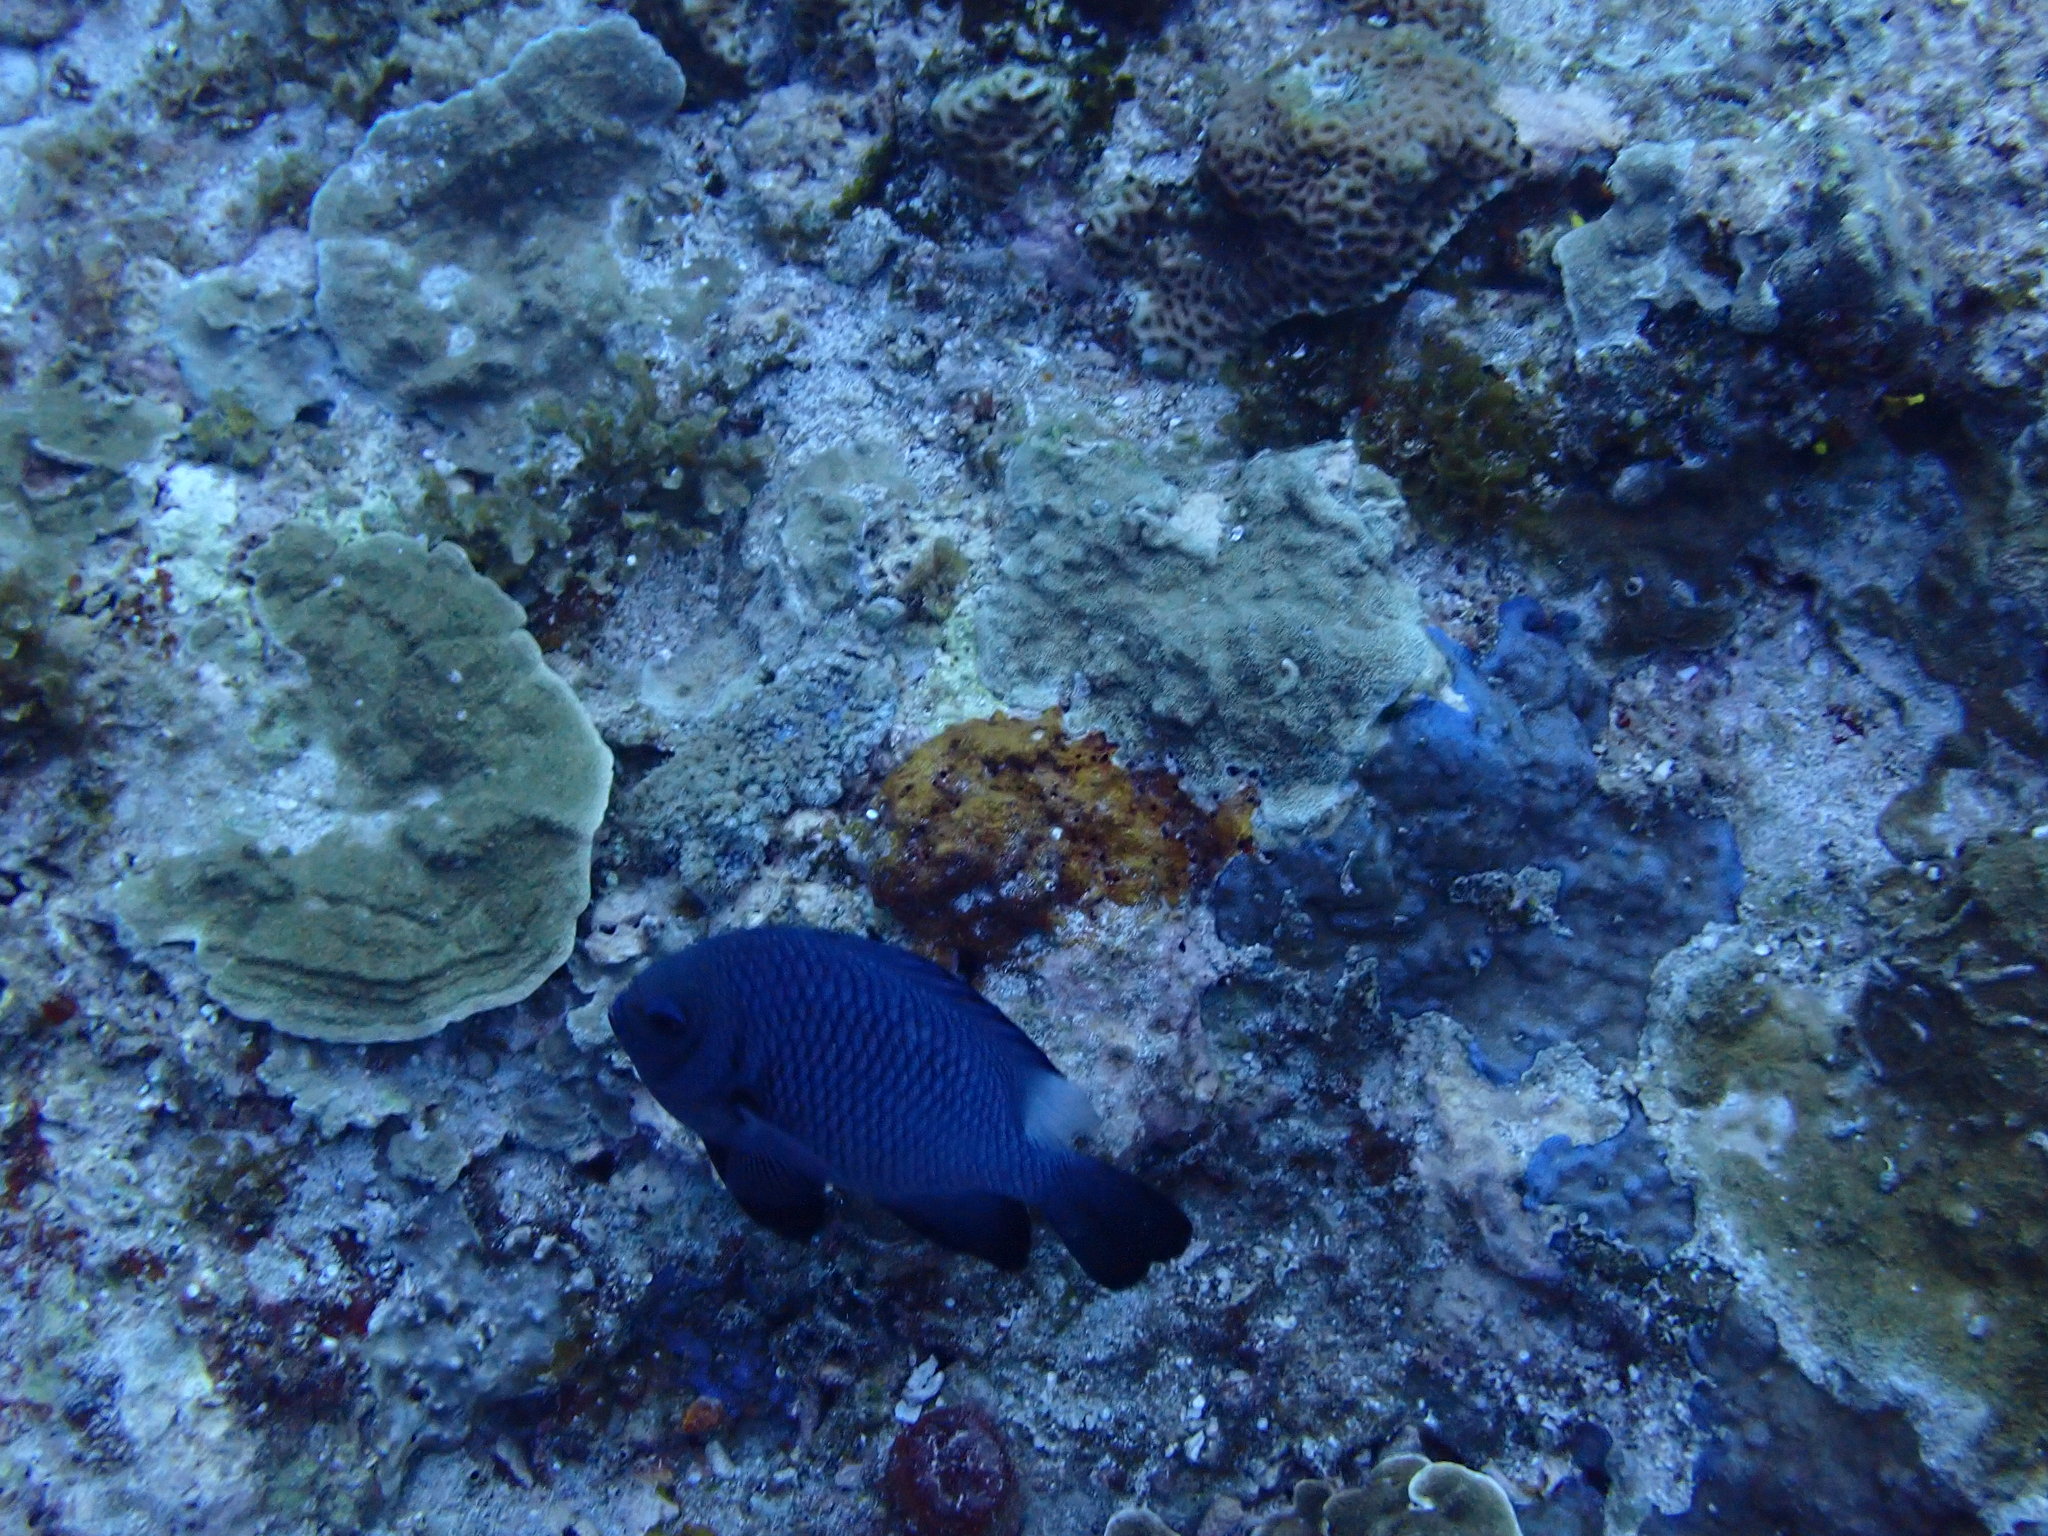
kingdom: Animalia
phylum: Chordata
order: Perciformes
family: Pomacentridae
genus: Dascyllus
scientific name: Dascyllus trimaculatus
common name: Threespot dascyllus
